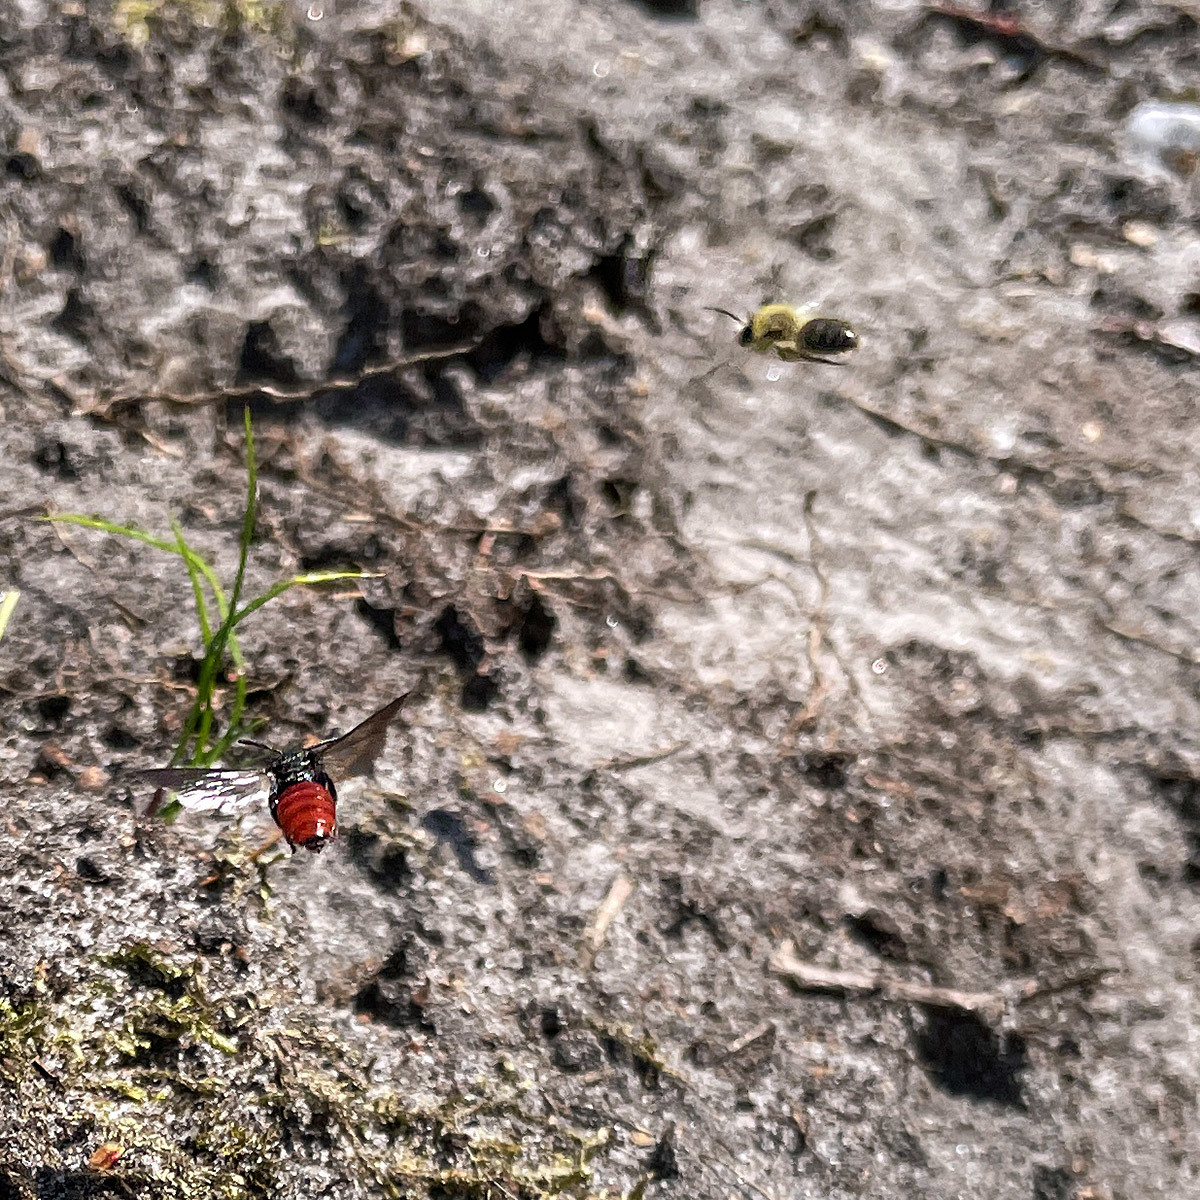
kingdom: Animalia
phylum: Arthropoda
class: Insecta
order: Hymenoptera
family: Halictidae
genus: Sphecodes
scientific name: Sphecodes albilabris
